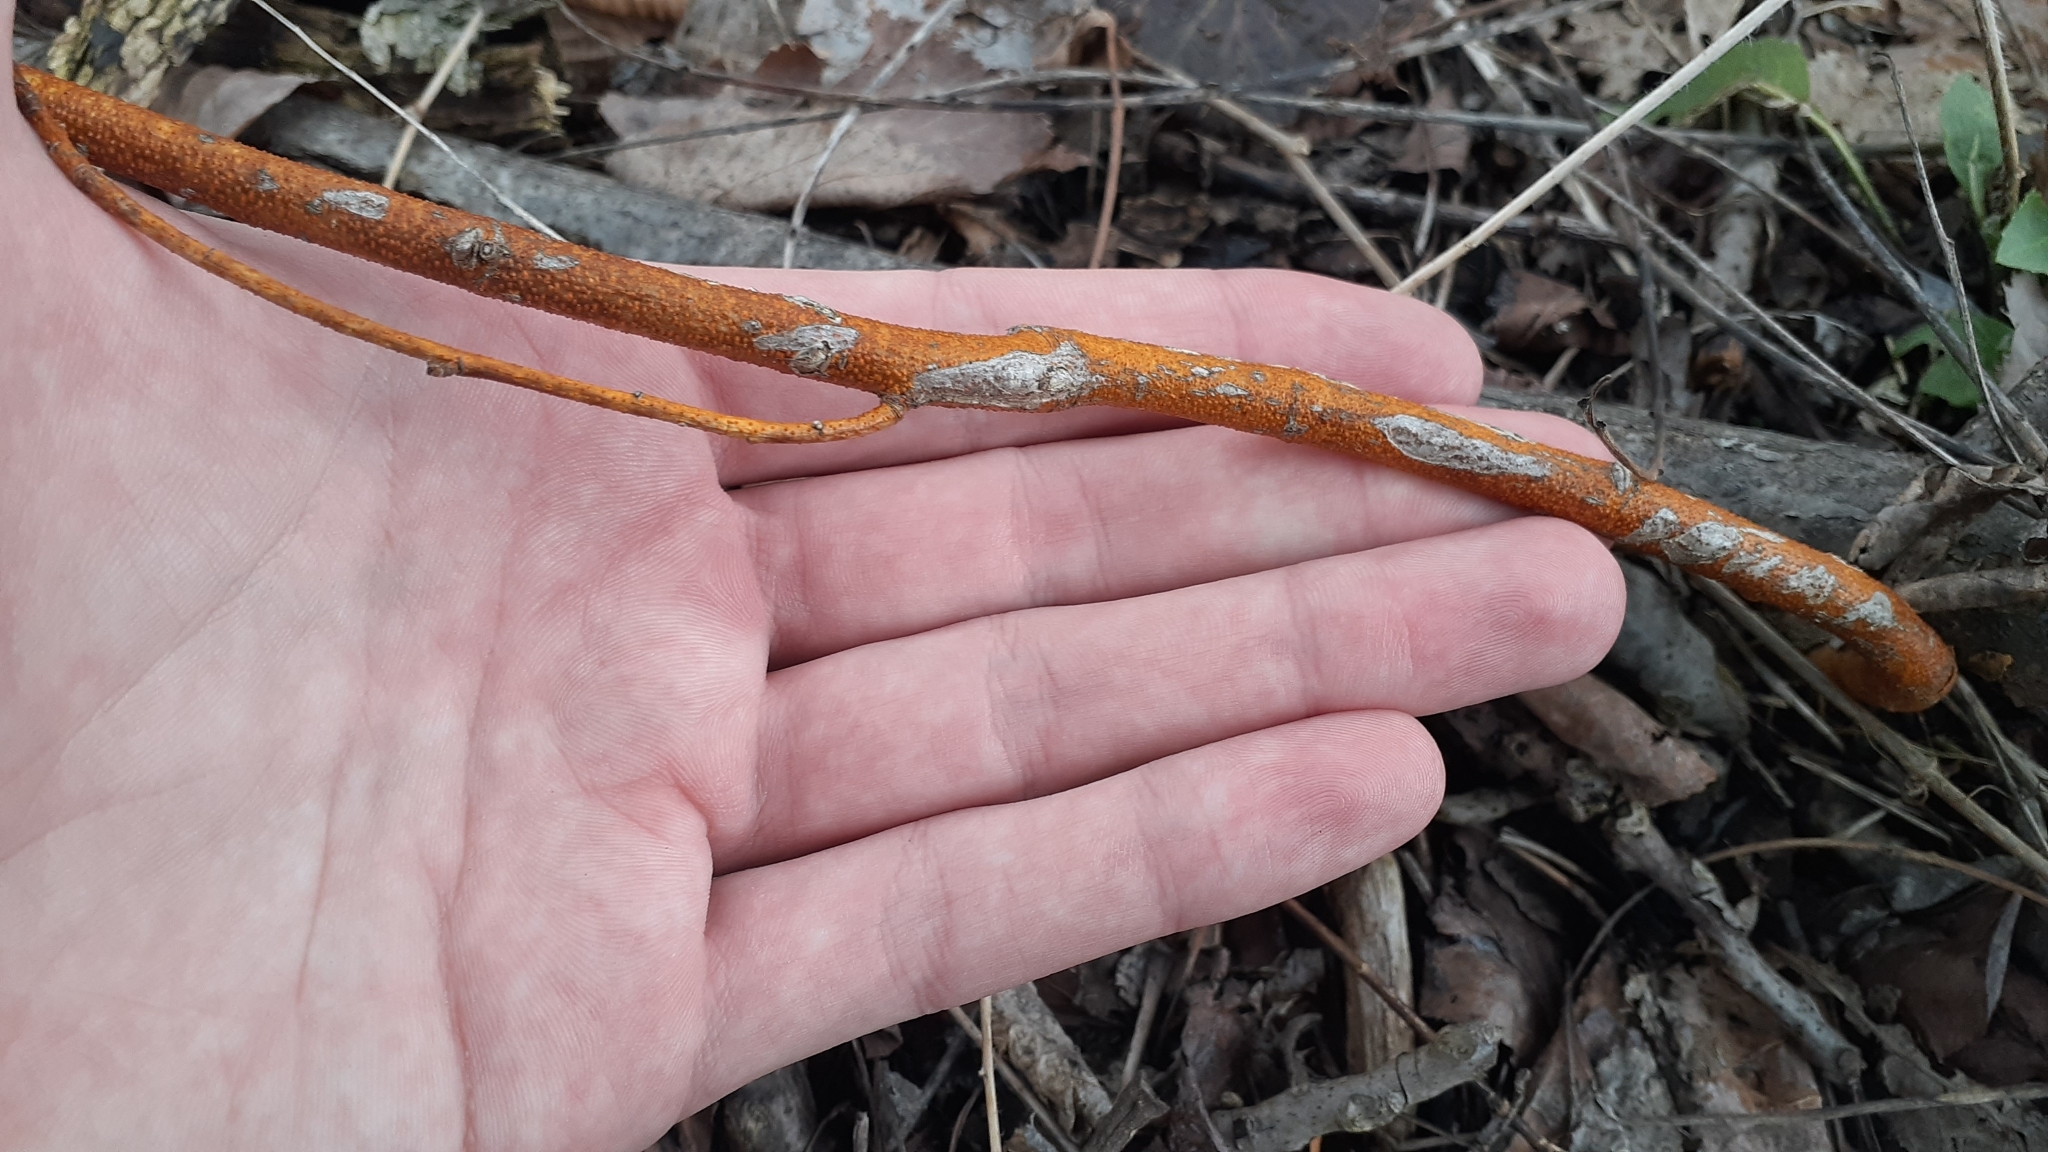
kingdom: Fungi
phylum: Ascomycota
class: Sordariomycetes
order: Diaporthales
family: Cryphonectriaceae
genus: Aurantioporthe
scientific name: Aurantioporthe corni
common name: Dogwood golden canker
